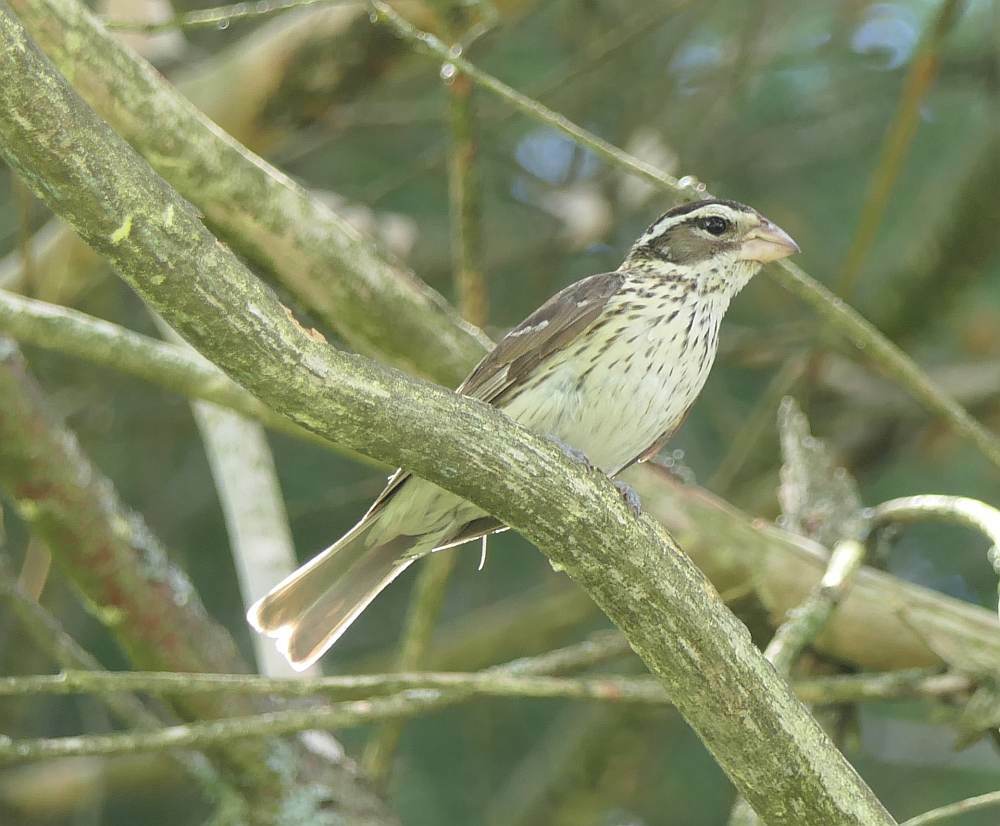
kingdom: Animalia
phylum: Chordata
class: Aves
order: Passeriformes
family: Cardinalidae
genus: Pheucticus
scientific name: Pheucticus ludovicianus
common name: Rose-breasted grosbeak
